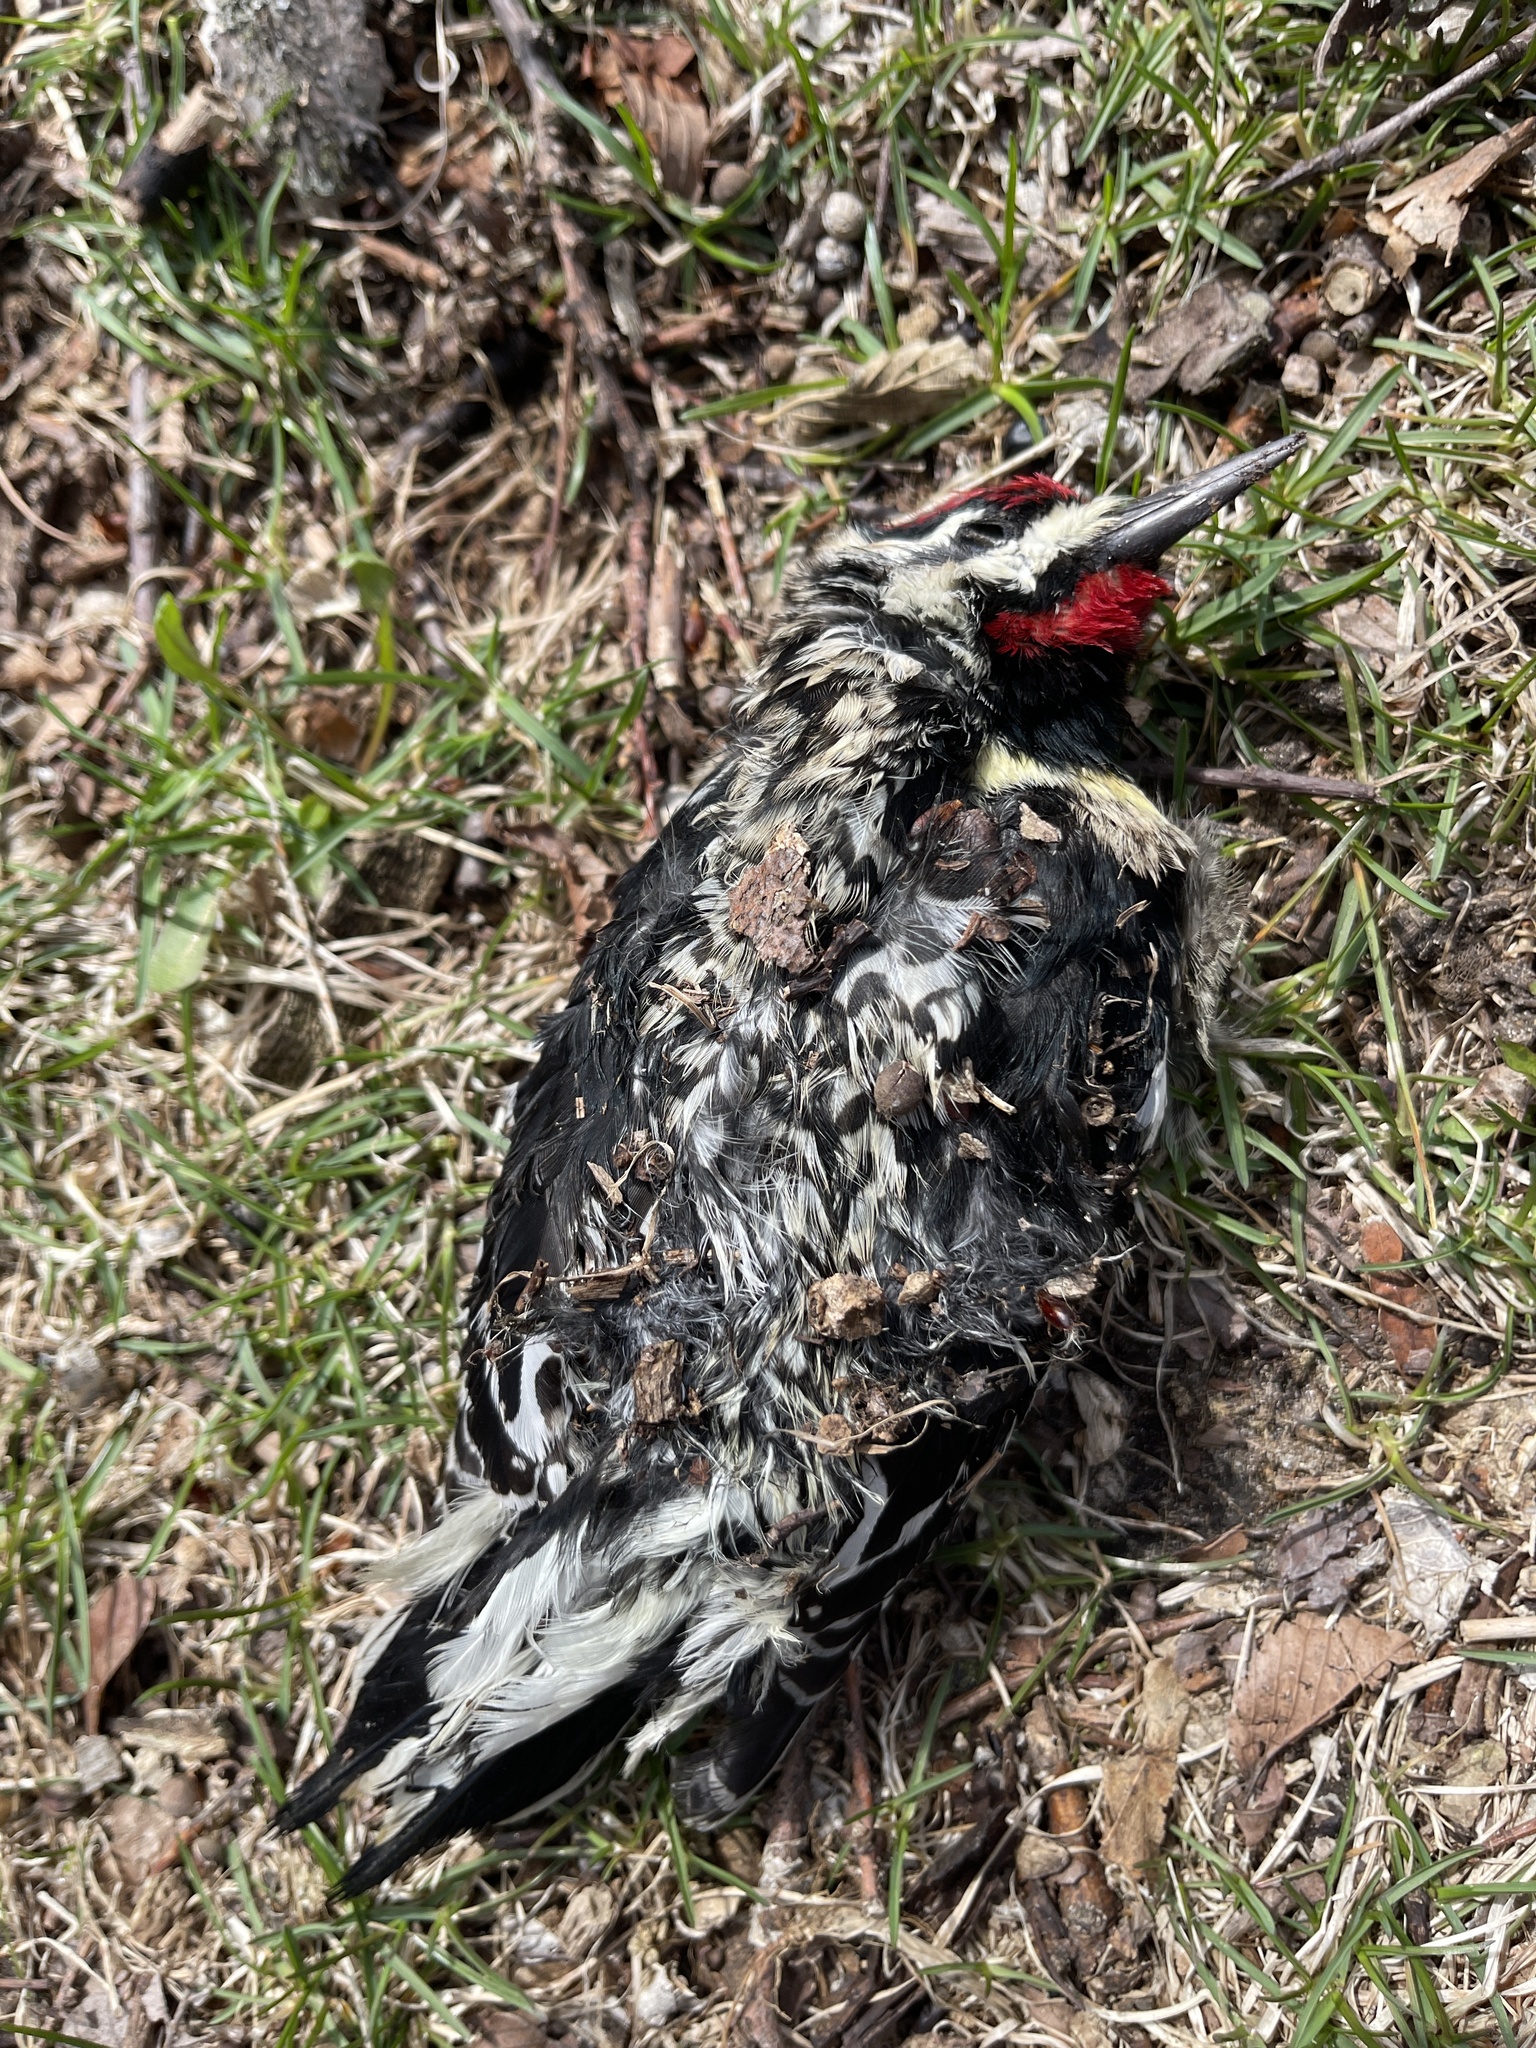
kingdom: Animalia
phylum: Chordata
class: Aves
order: Piciformes
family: Picidae
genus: Sphyrapicus
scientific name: Sphyrapicus varius
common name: Yellow-bellied sapsucker
